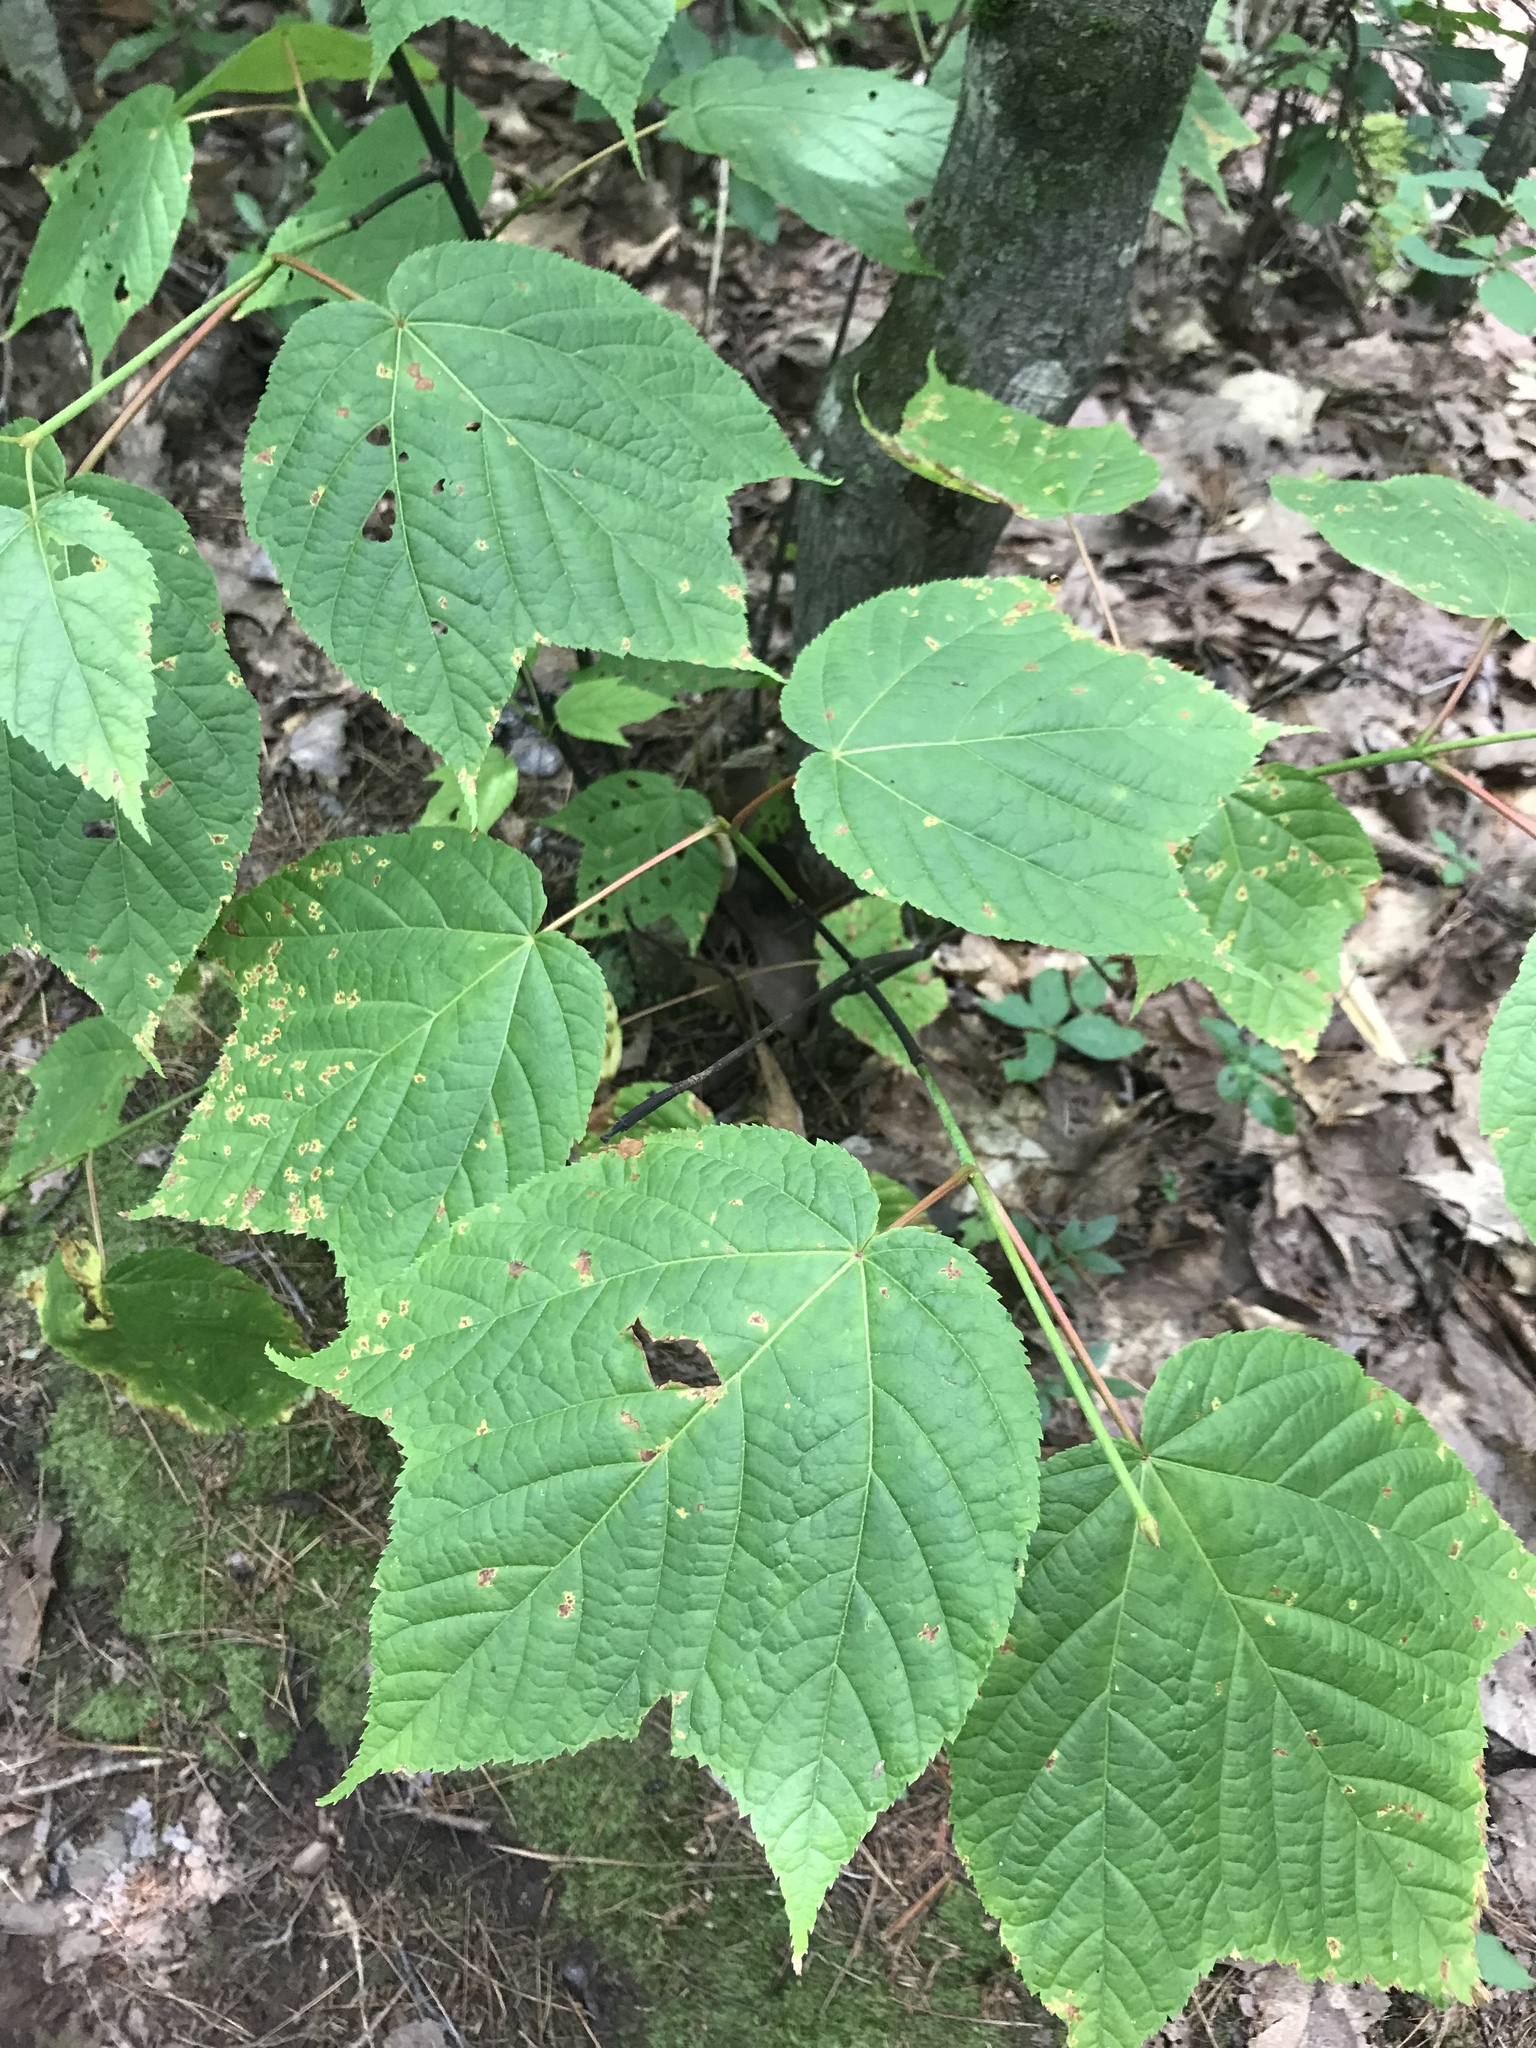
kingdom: Plantae
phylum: Tracheophyta
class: Magnoliopsida
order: Sapindales
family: Sapindaceae
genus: Acer
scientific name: Acer pensylvanicum
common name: Moosewood
